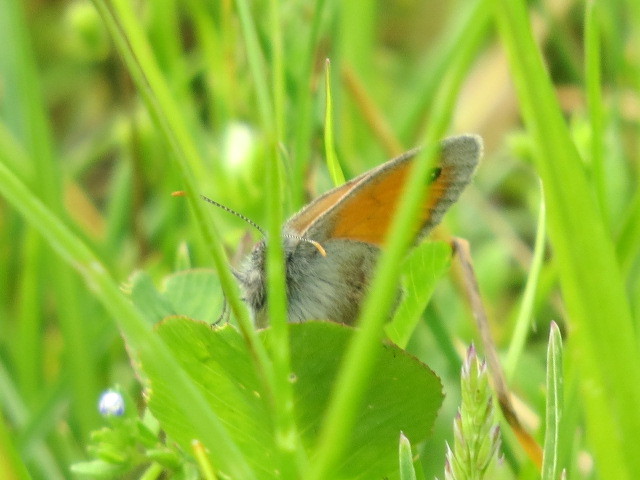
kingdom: Animalia
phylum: Arthropoda
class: Insecta
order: Lepidoptera
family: Nymphalidae
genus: Coenonympha
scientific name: Coenonympha pamphilus
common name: Small heath
